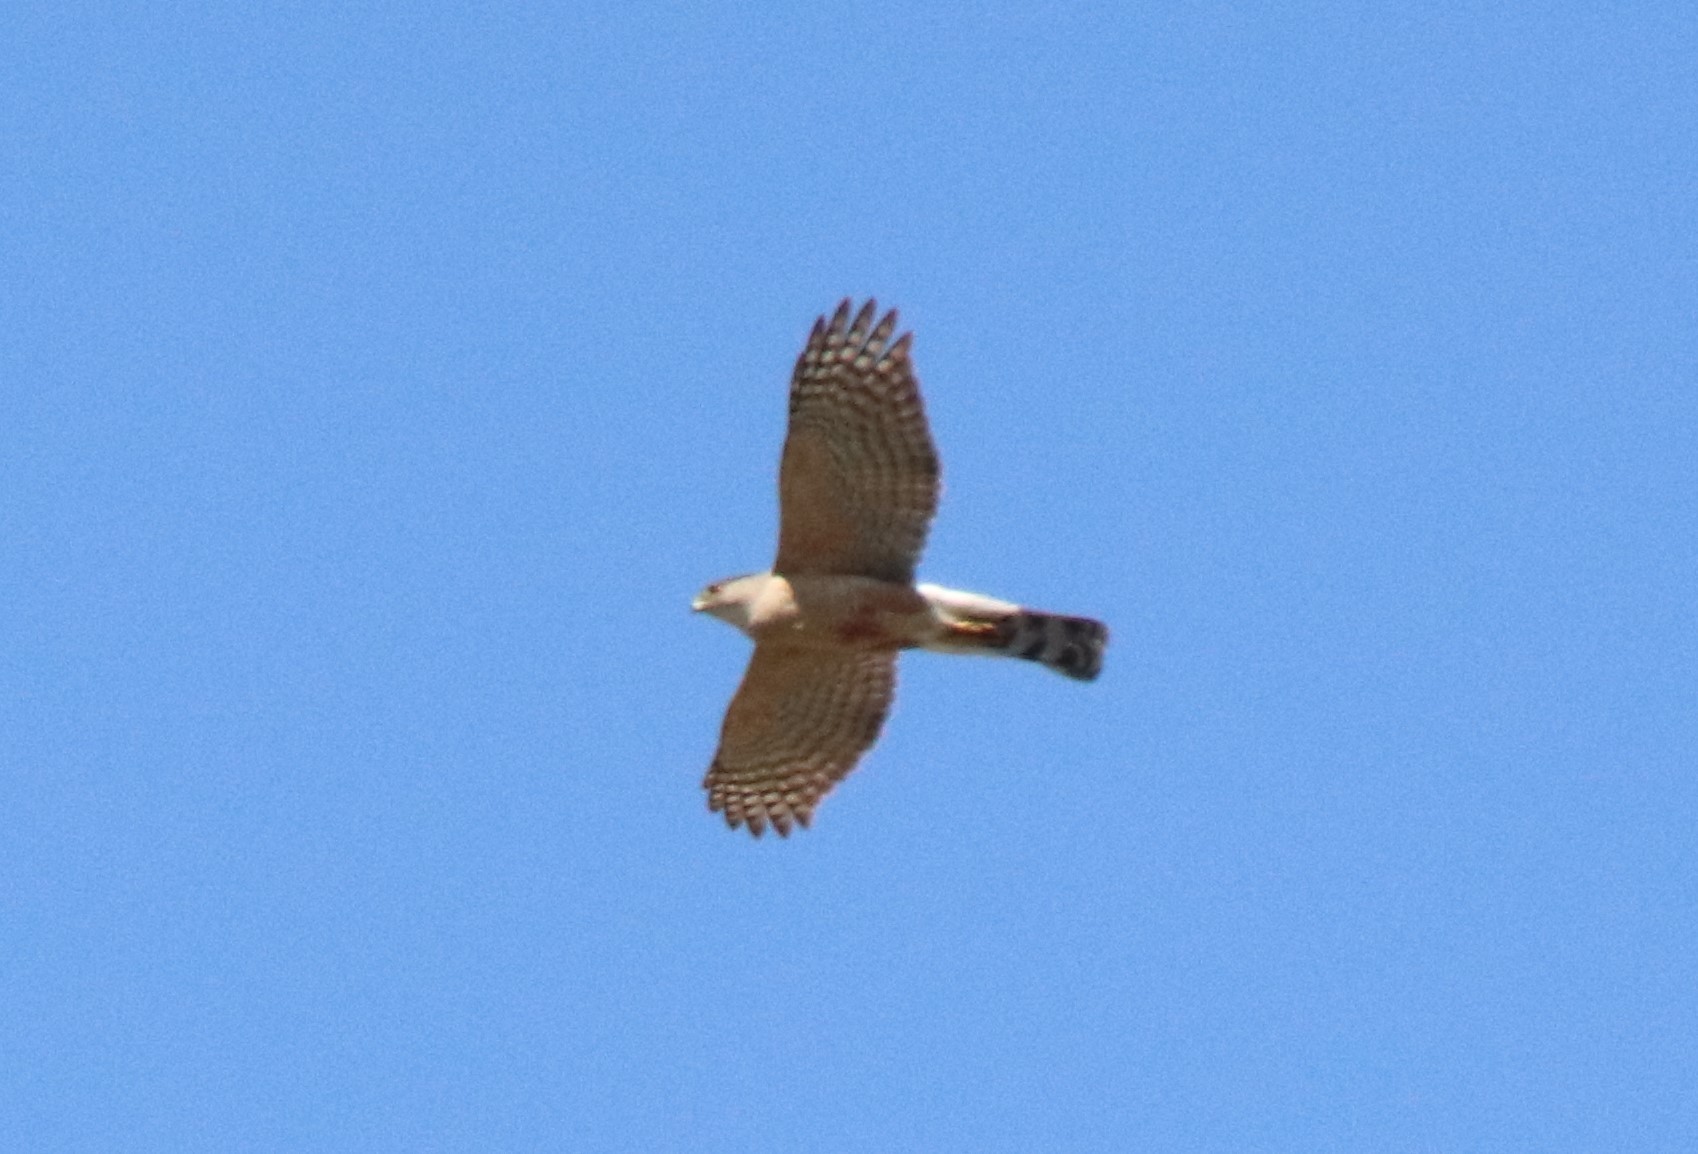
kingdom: Animalia
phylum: Chordata
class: Aves
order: Accipitriformes
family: Accipitridae
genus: Accipiter
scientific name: Accipiter cooperii
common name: Cooper's hawk
